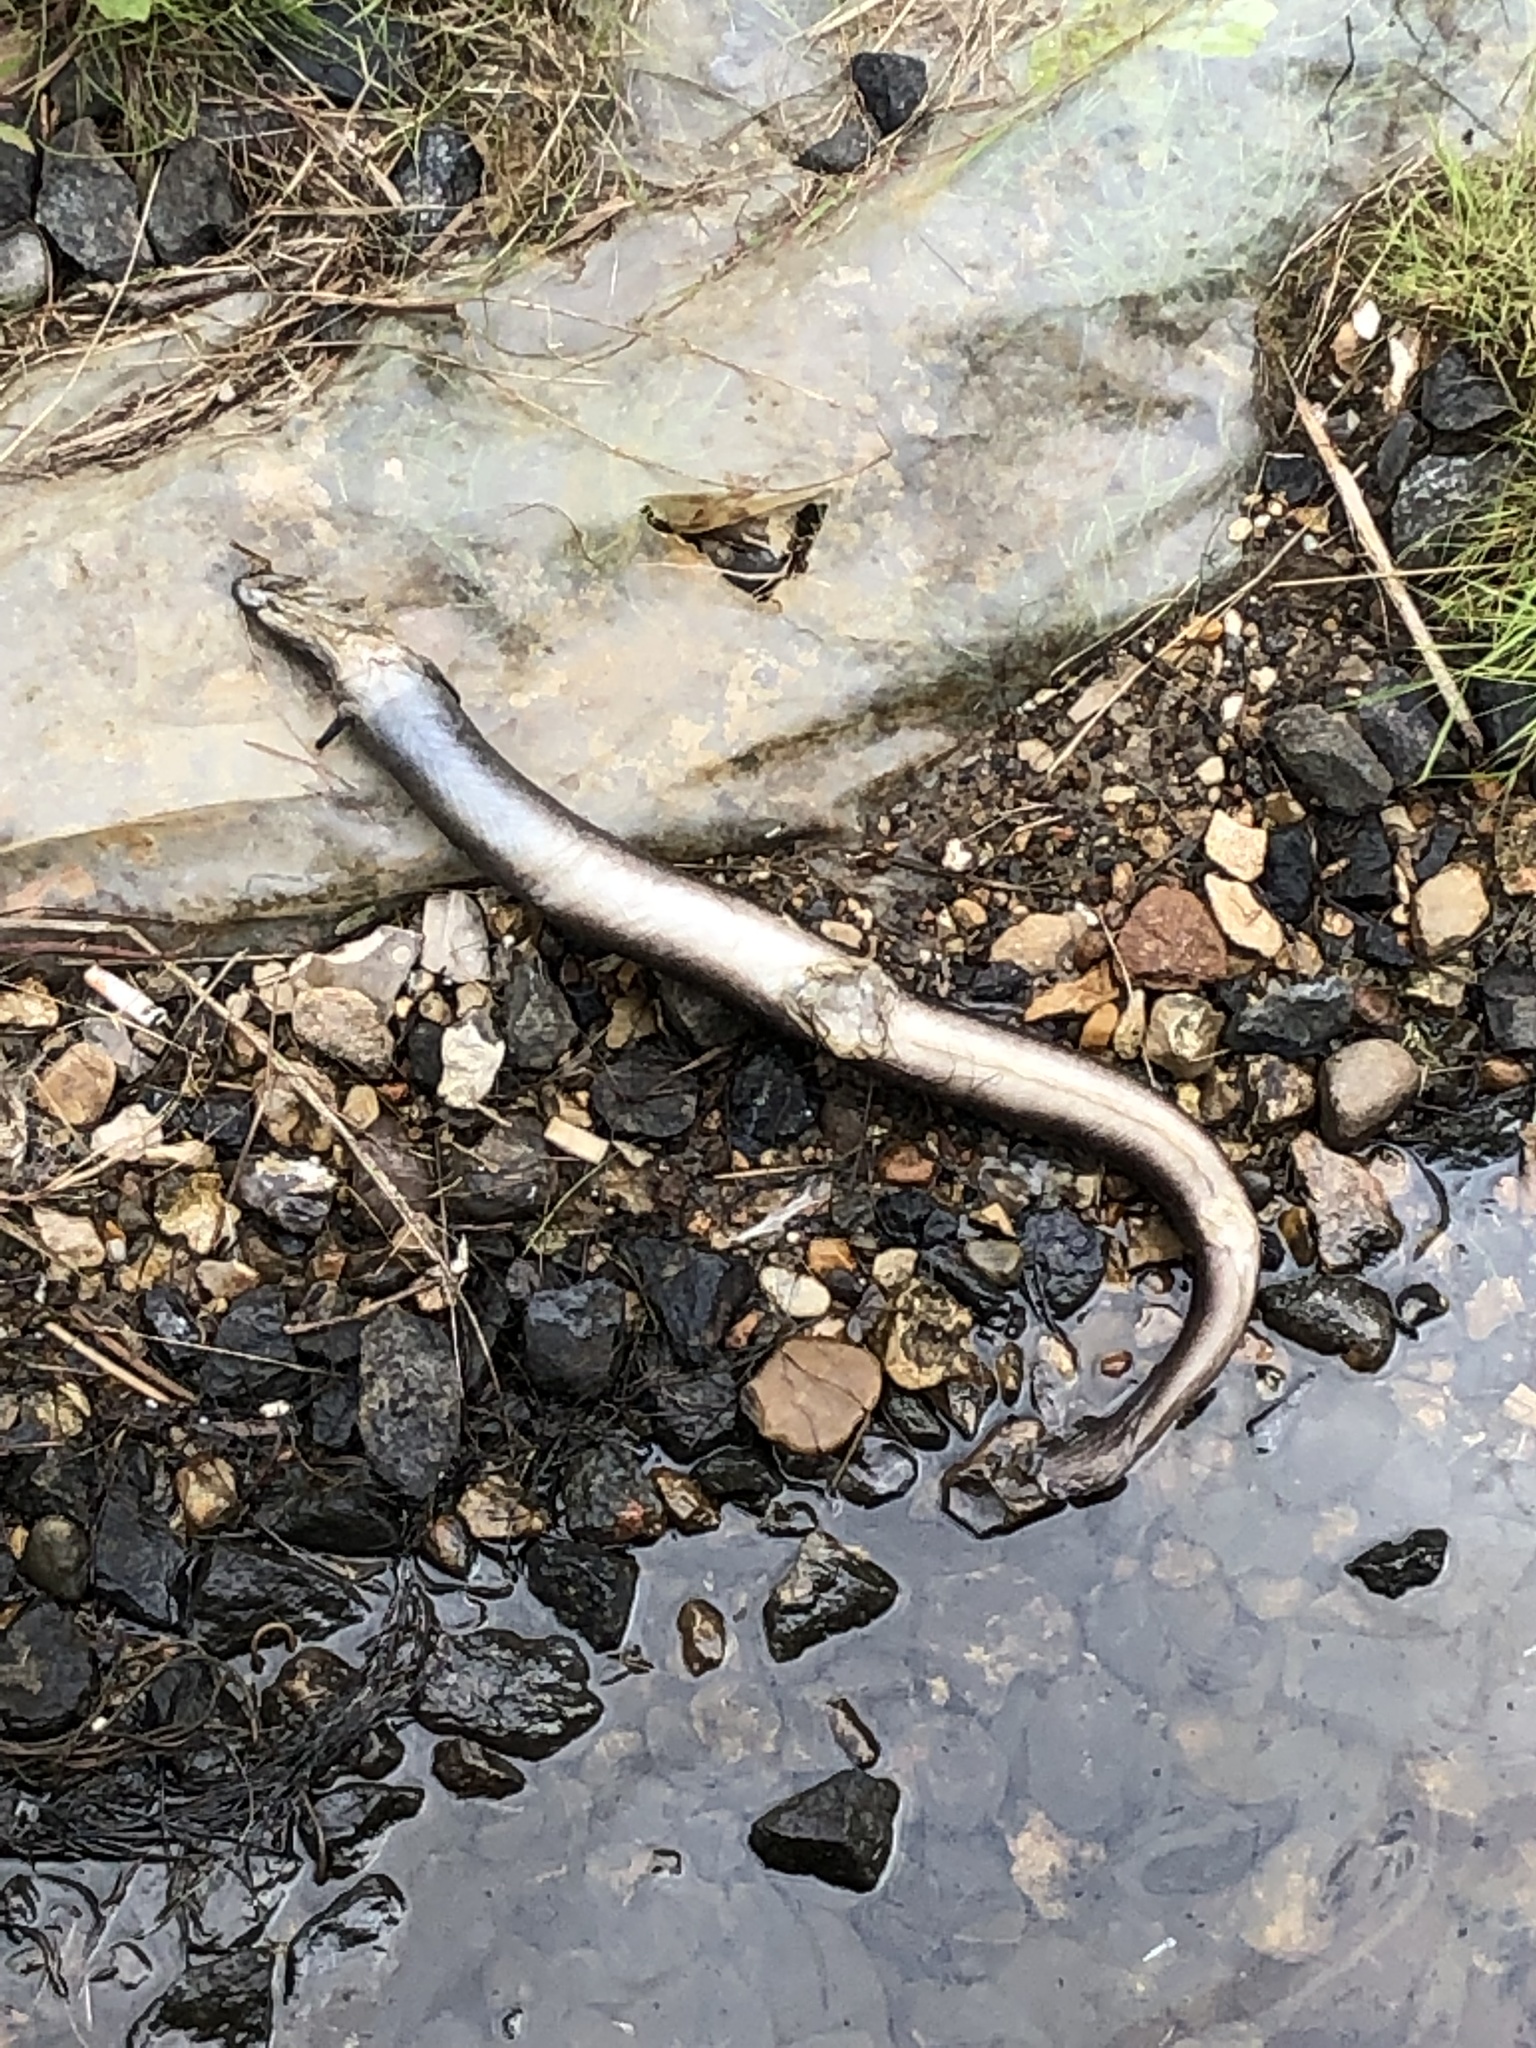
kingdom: Animalia
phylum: Chordata
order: Anguilliformes
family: Anguillidae
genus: Anguilla
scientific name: Anguilla anguilla
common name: European eel
